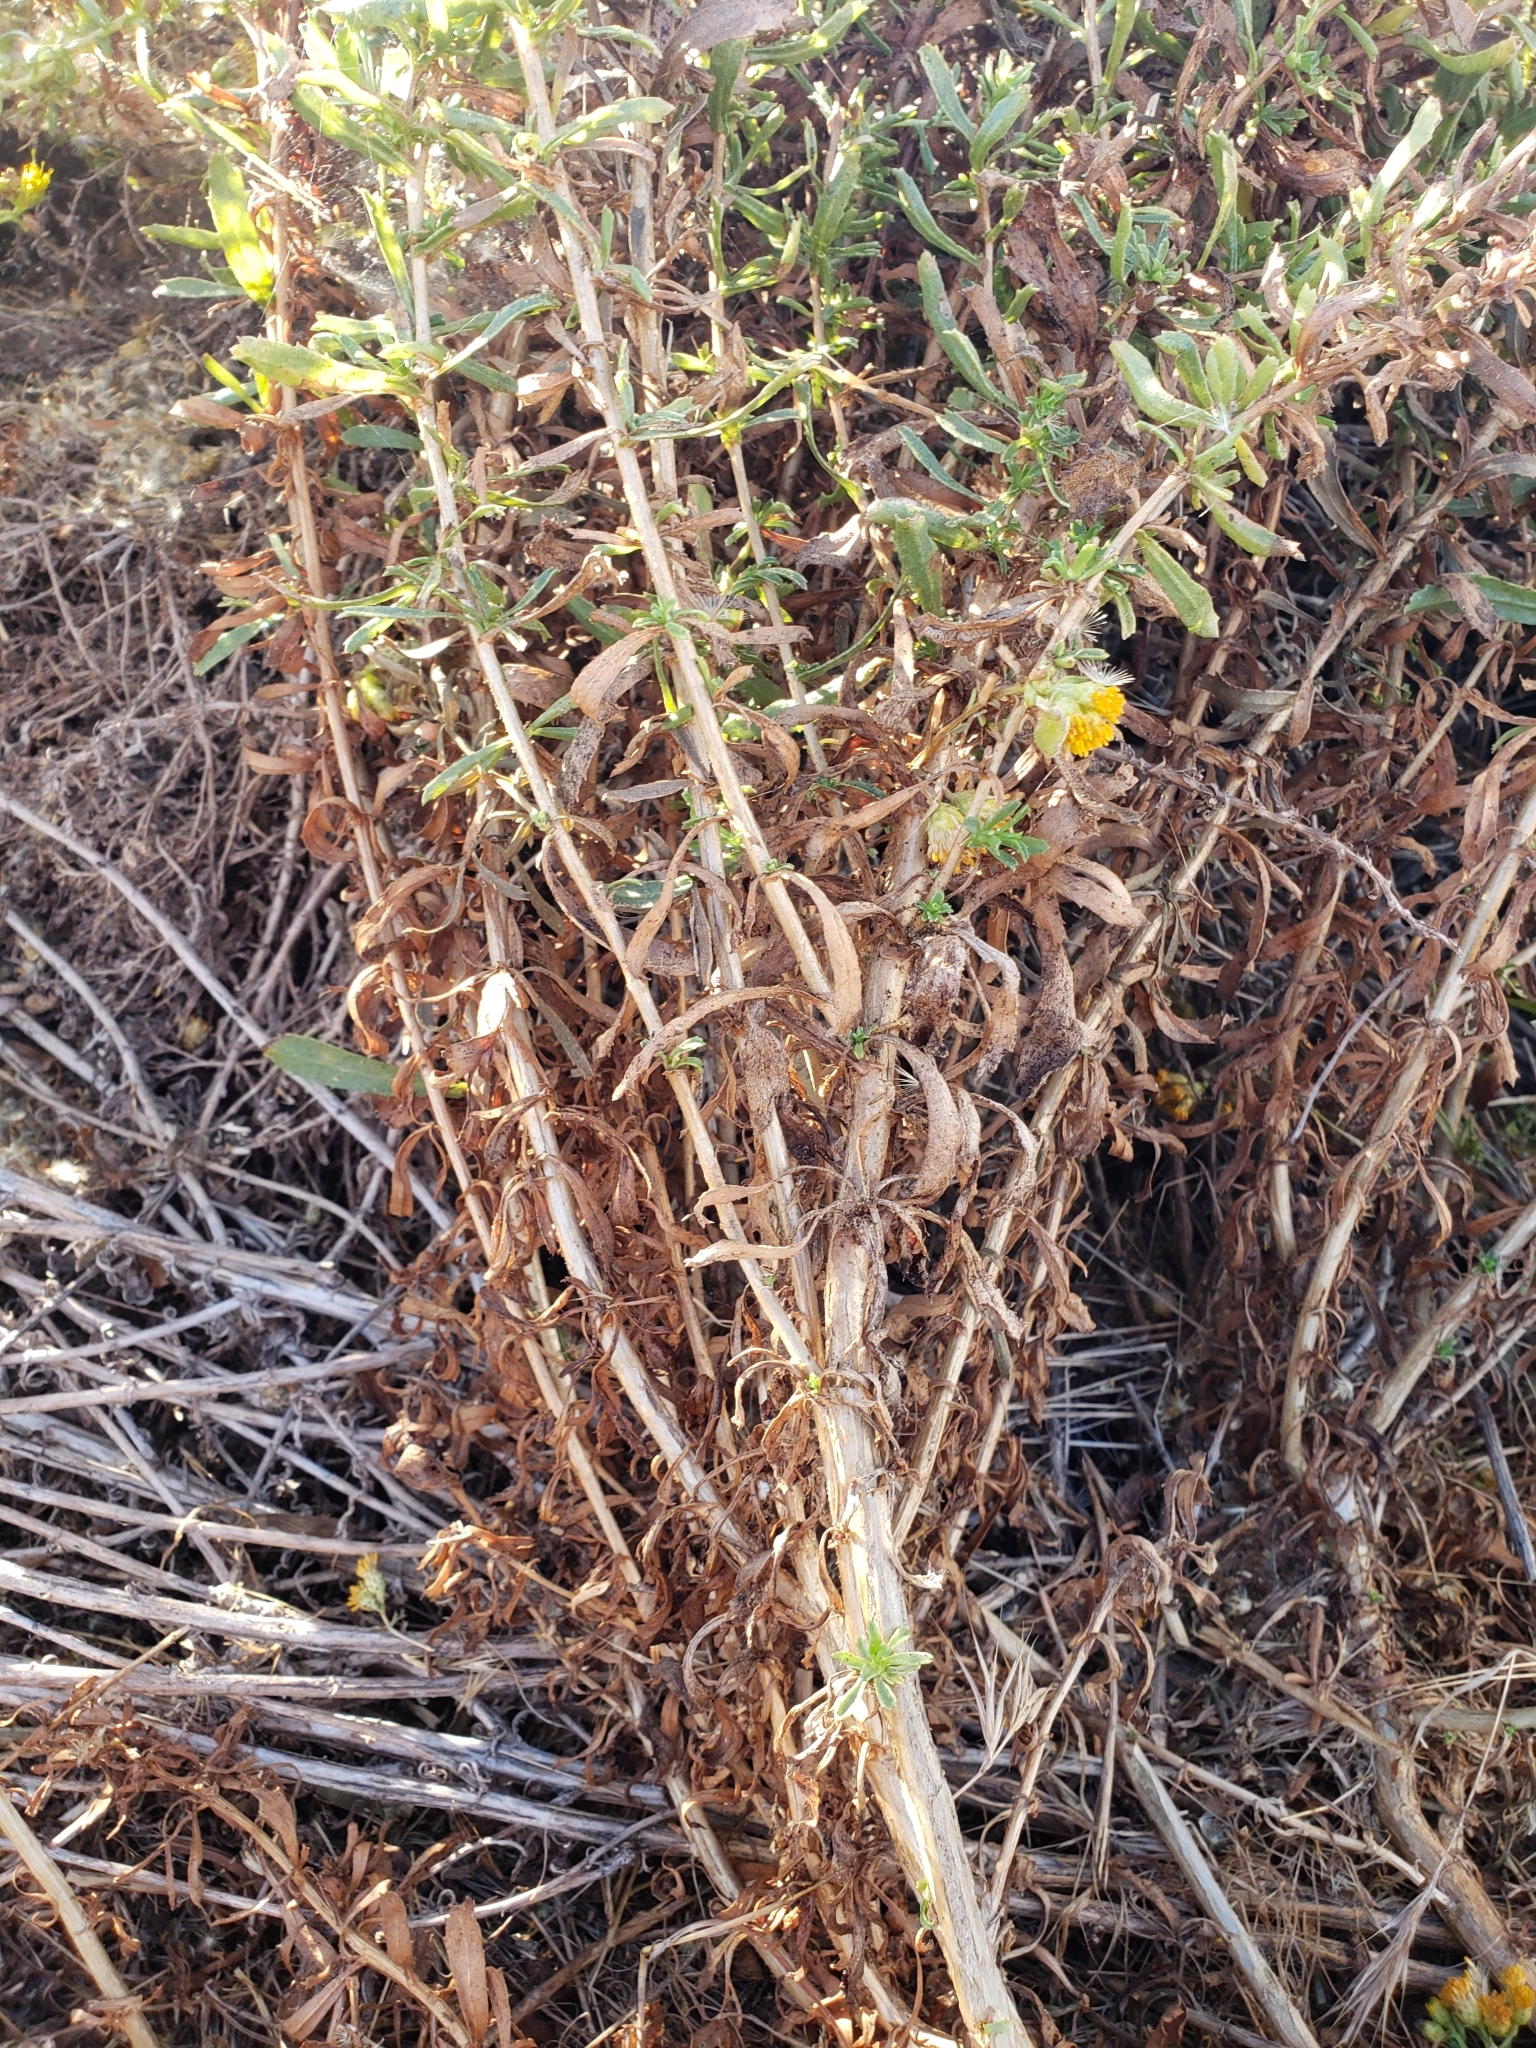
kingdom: Plantae
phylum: Tracheophyta
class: Magnoliopsida
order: Asterales
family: Asteraceae
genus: Isocoma
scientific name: Isocoma menziesii
